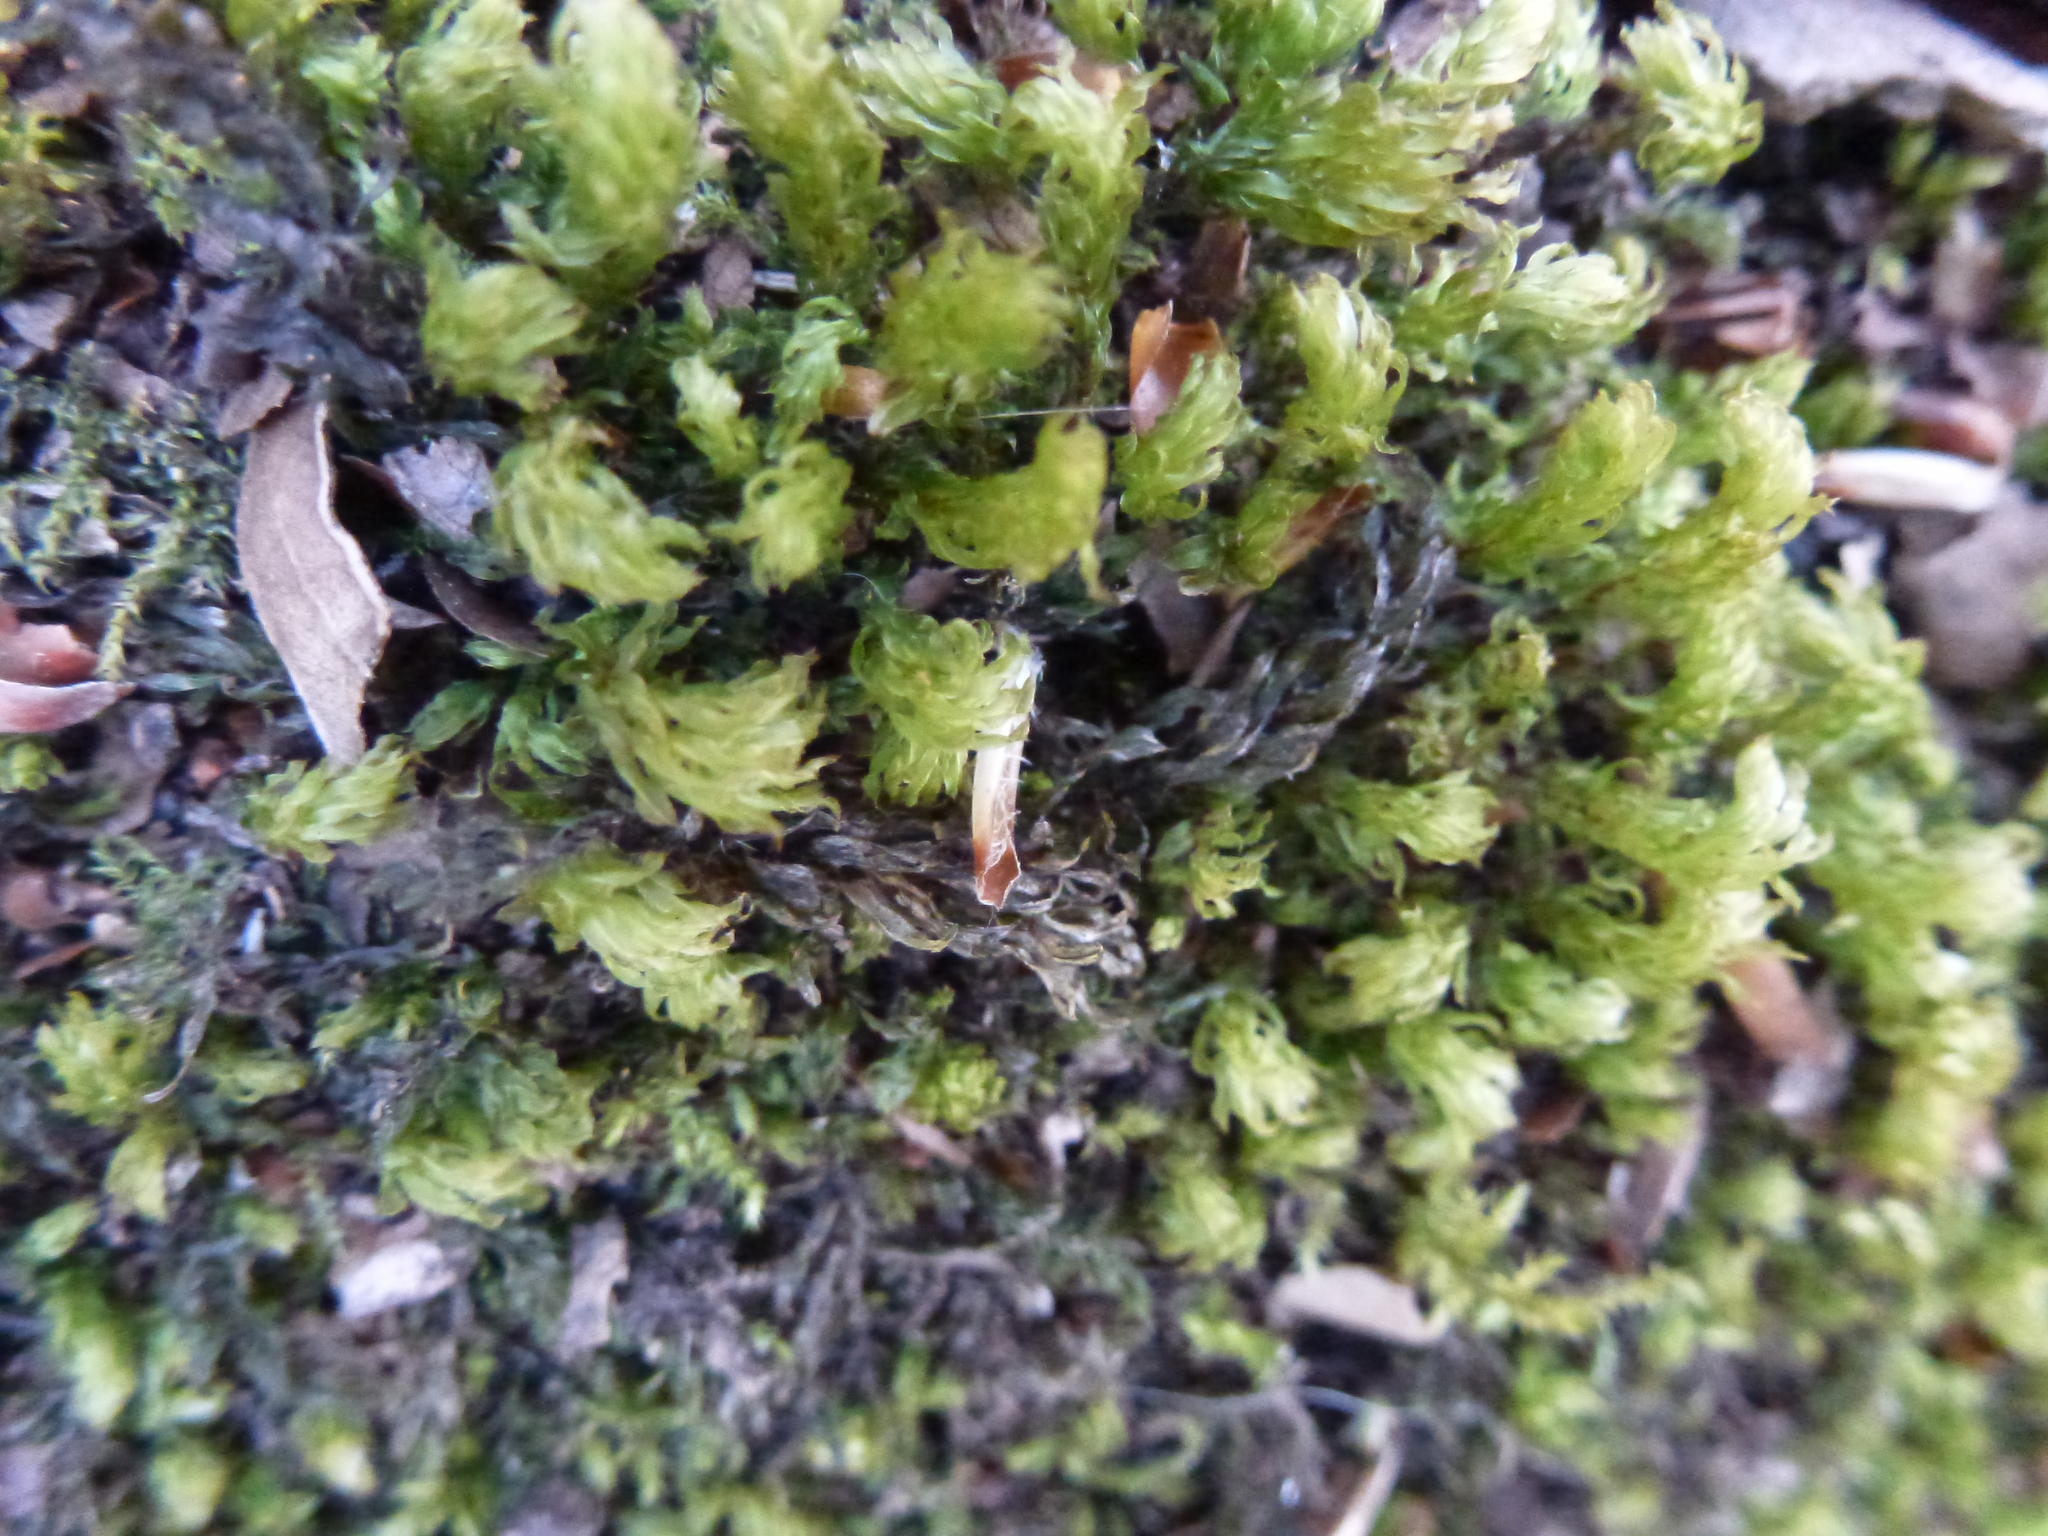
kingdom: Plantae
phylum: Bryophyta
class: Bryopsida
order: Bryales
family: Mniaceae
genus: Mnium
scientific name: Mnium hornum
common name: Swan's-neck leafy moss
